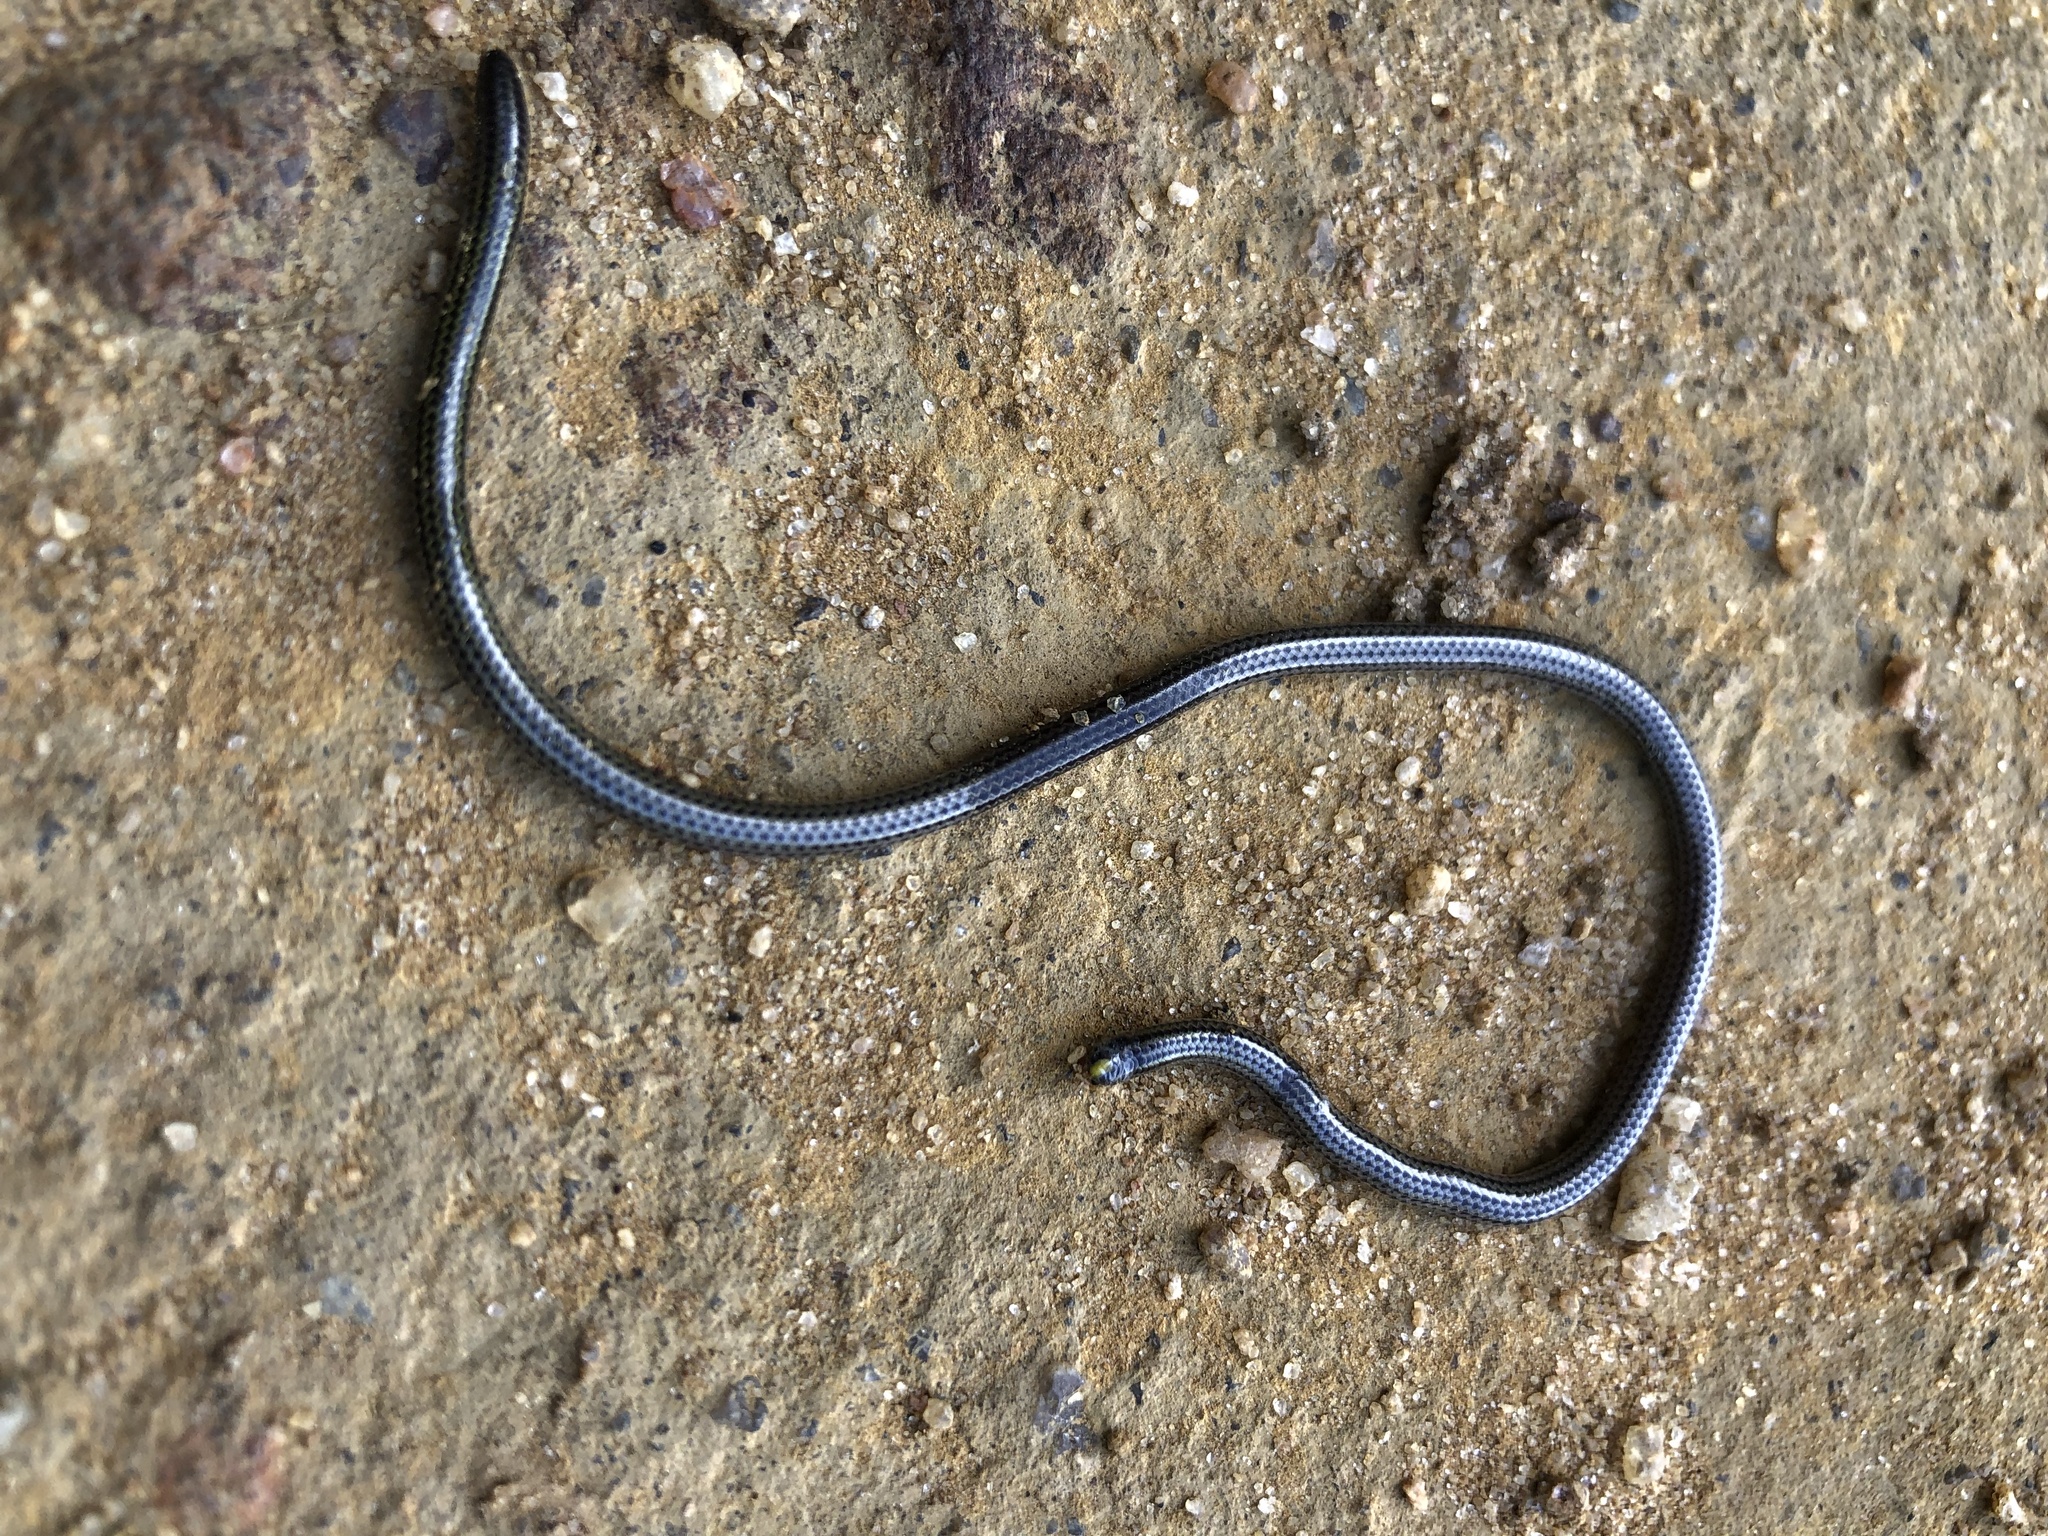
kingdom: Animalia
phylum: Chordata
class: Squamata
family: Leptotyphlopidae
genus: Epictia
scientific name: Epictia borapeliotes
